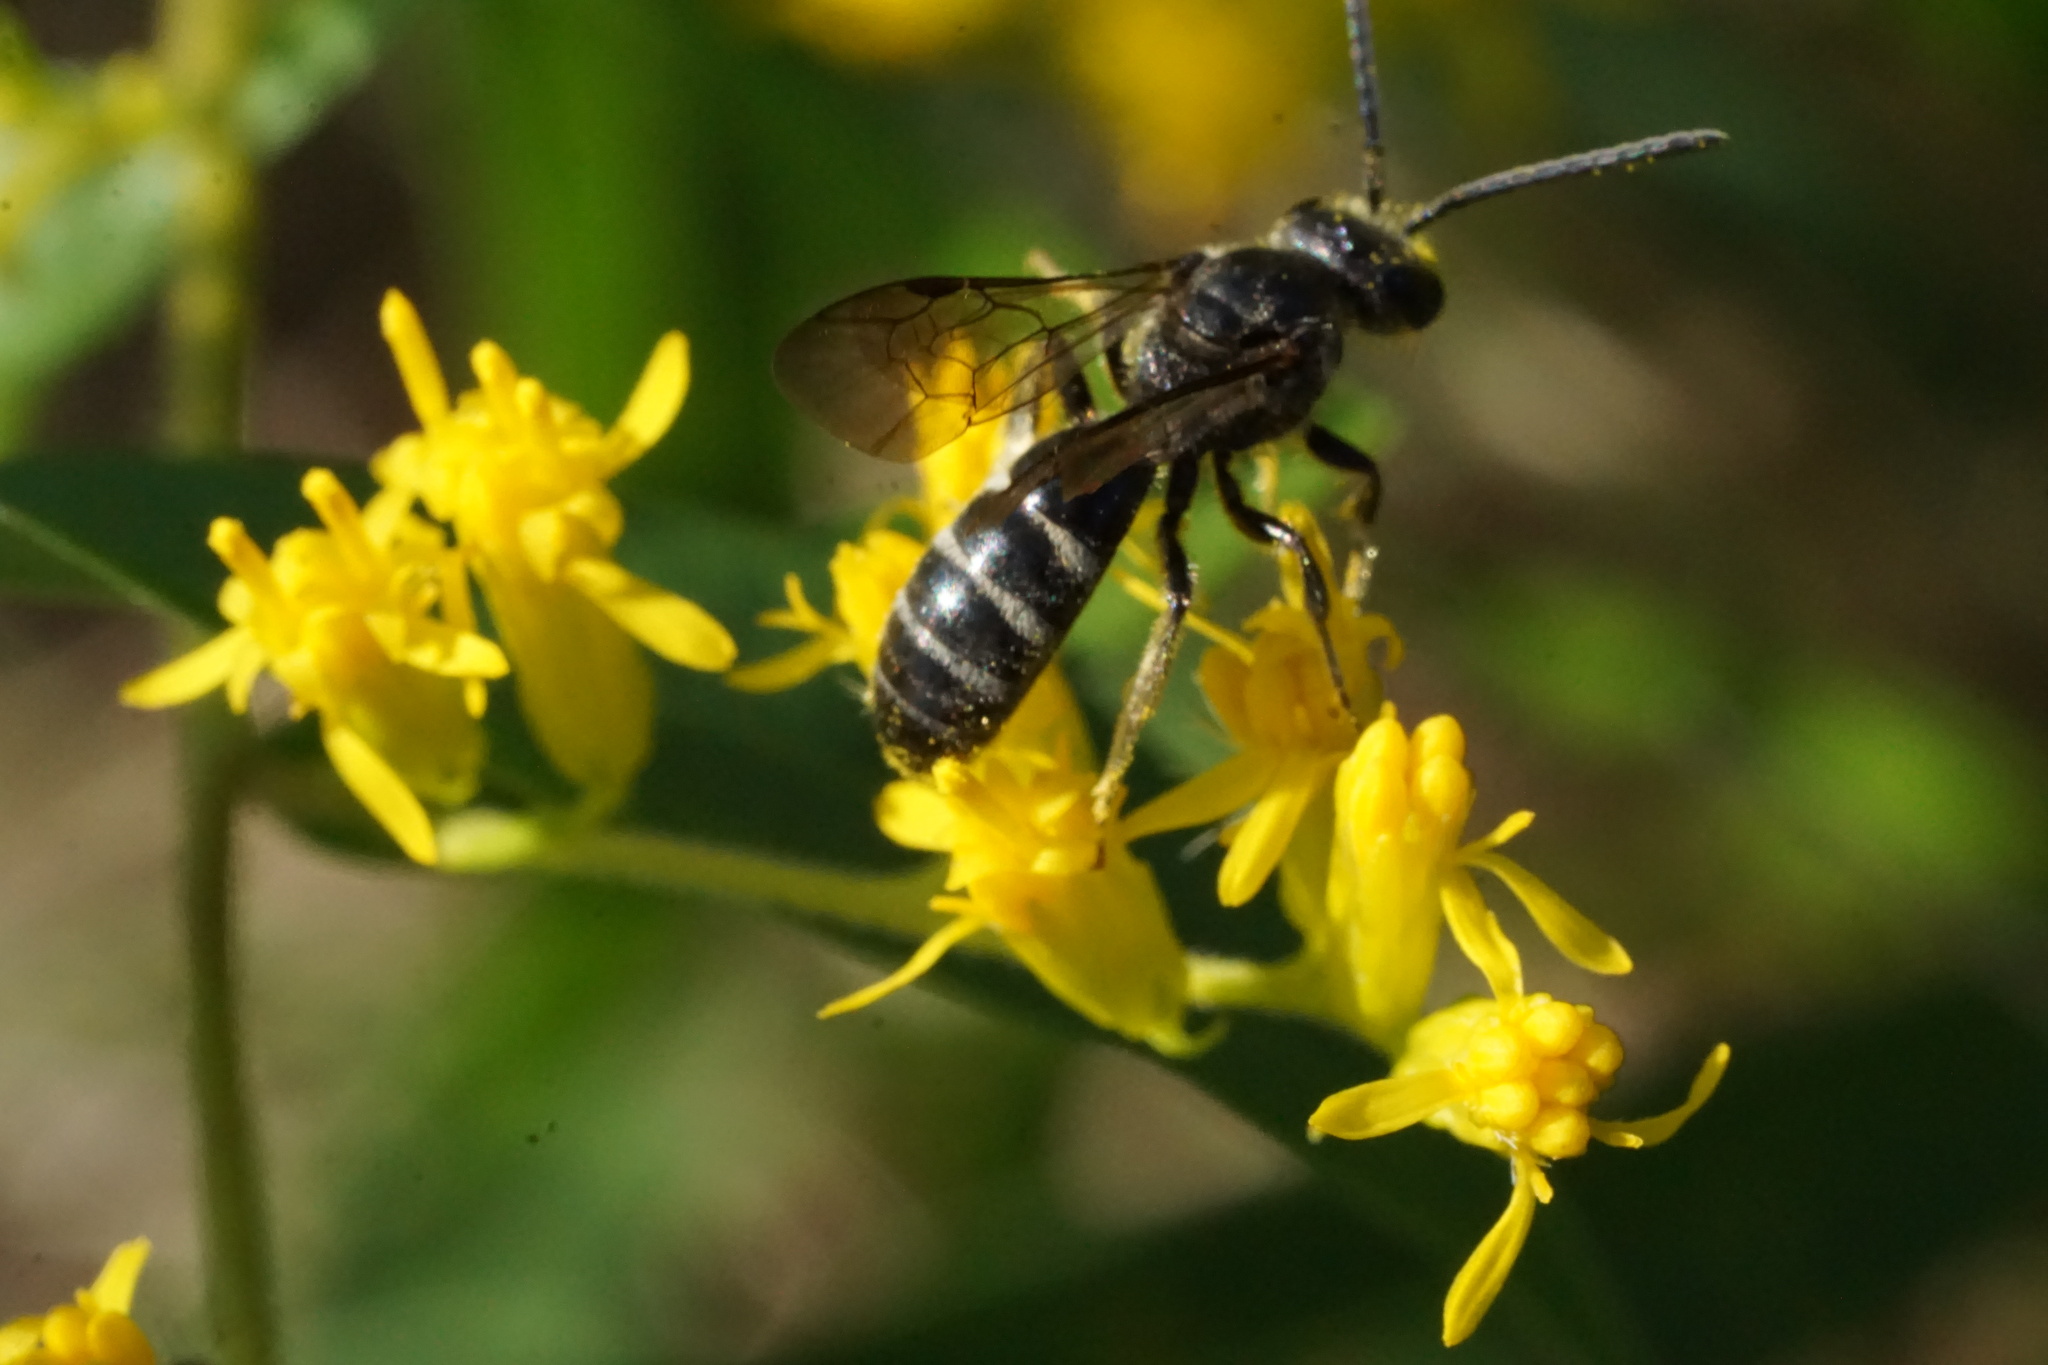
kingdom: Animalia
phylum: Arthropoda
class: Insecta
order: Hymenoptera
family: Halictidae
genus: Lasioglossum
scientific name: Lasioglossum fuscipenne
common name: Brown-winged sweat bee
